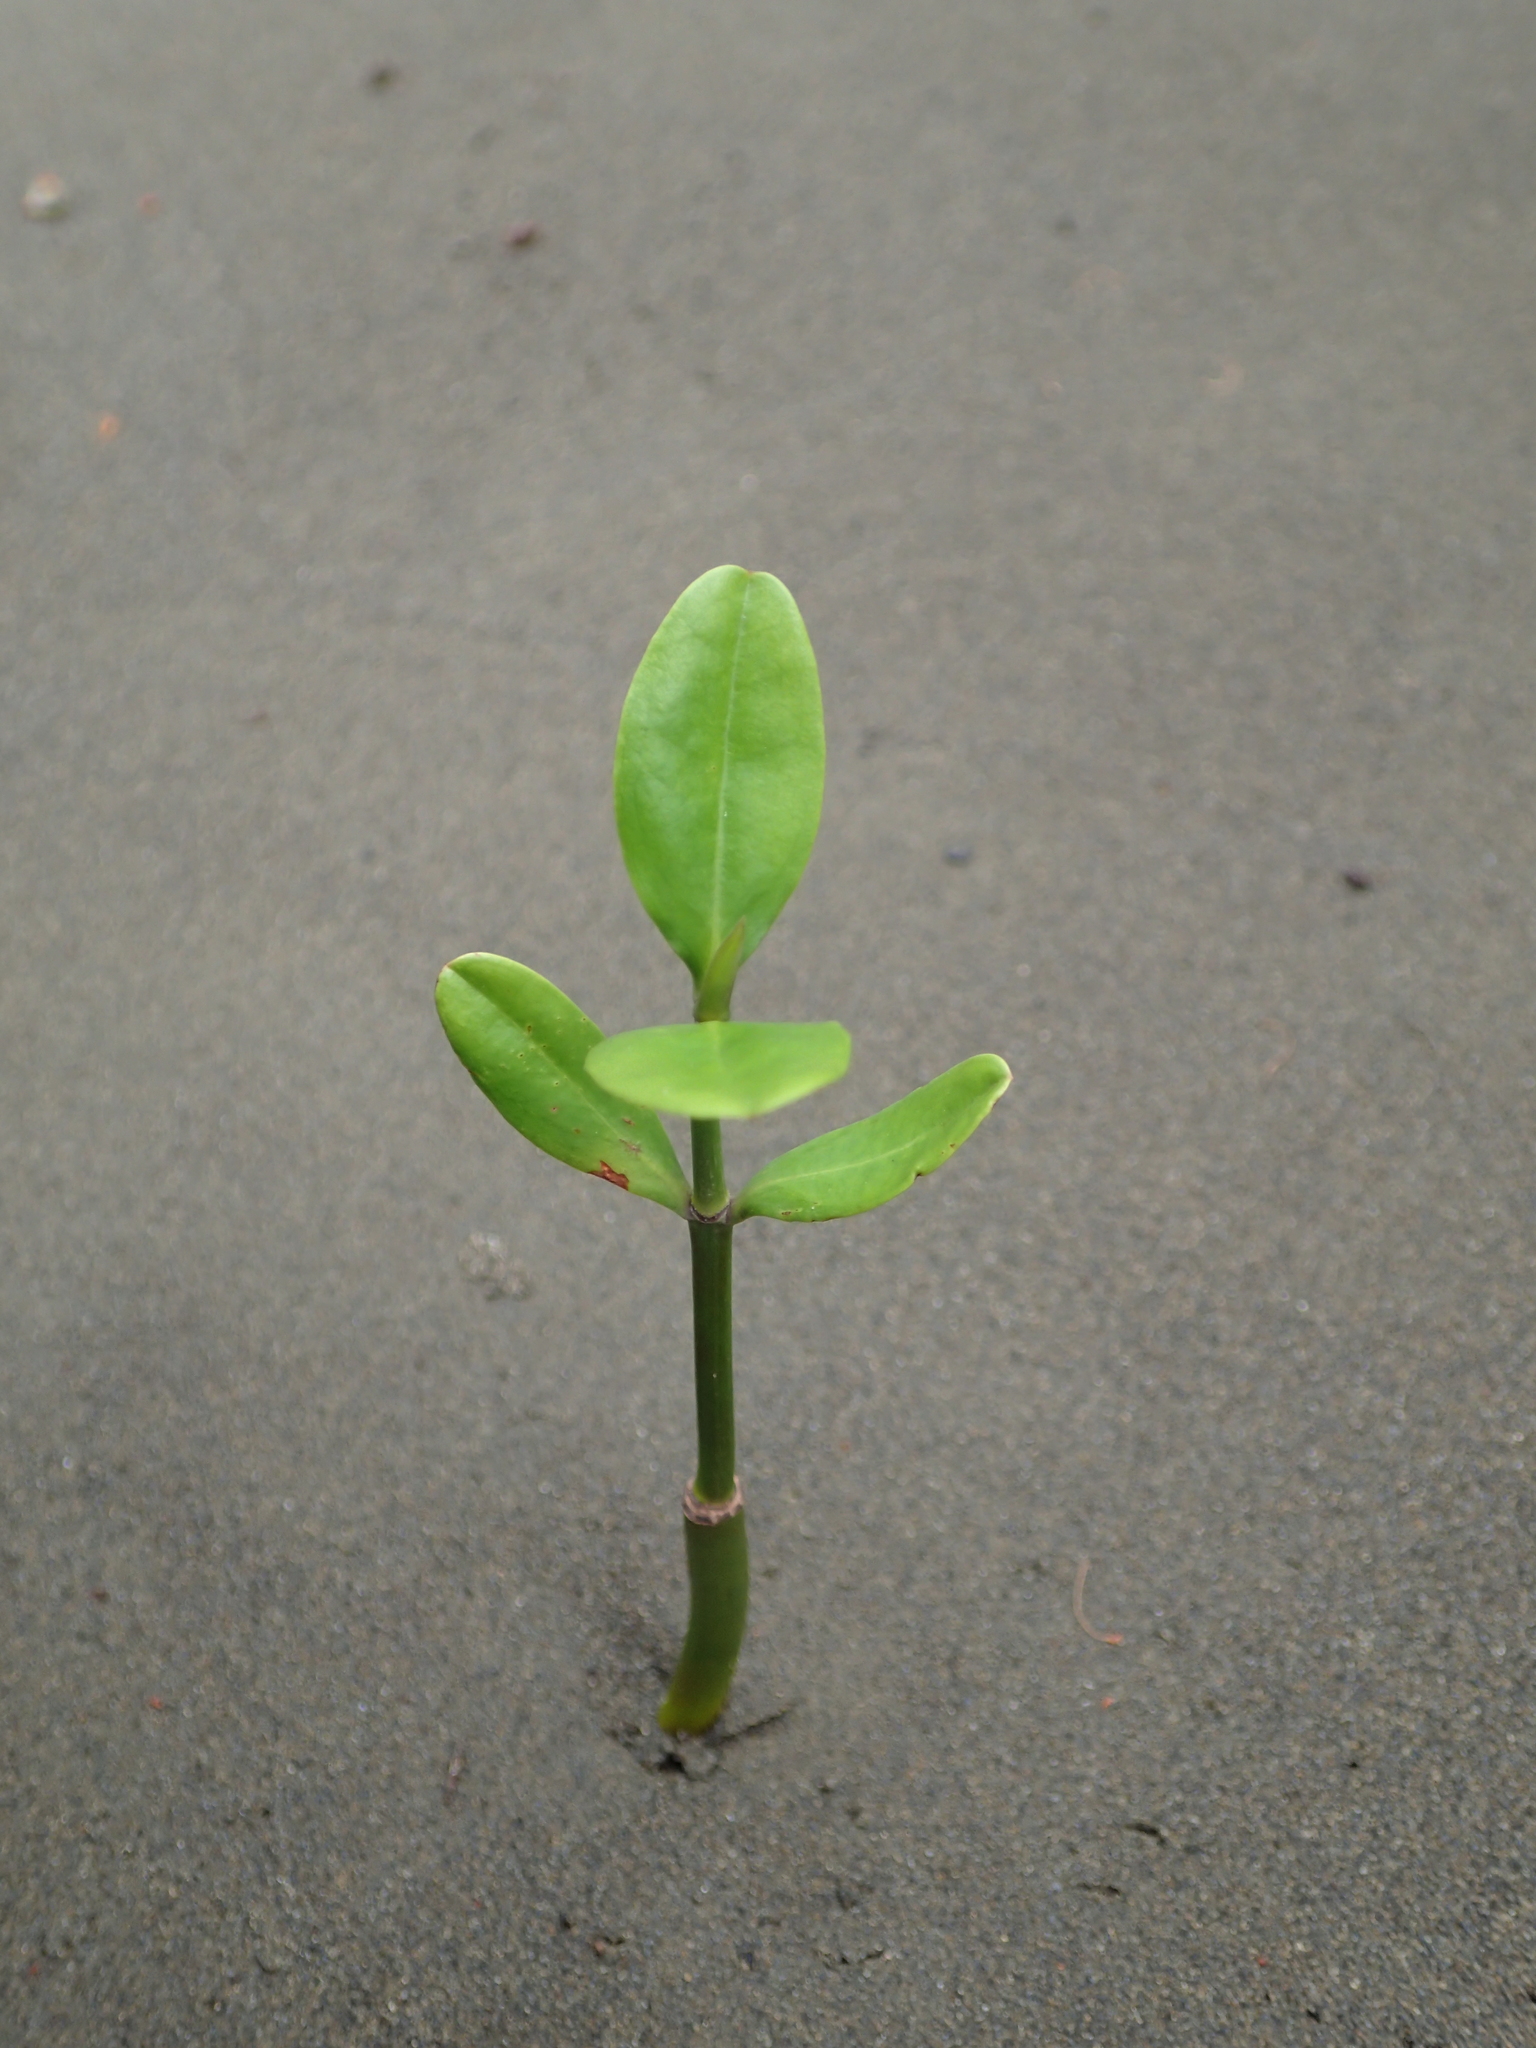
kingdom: Plantae
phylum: Tracheophyta
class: Magnoliopsida
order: Malpighiales
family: Rhizophoraceae
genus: Kandelia
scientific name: Kandelia obovata
